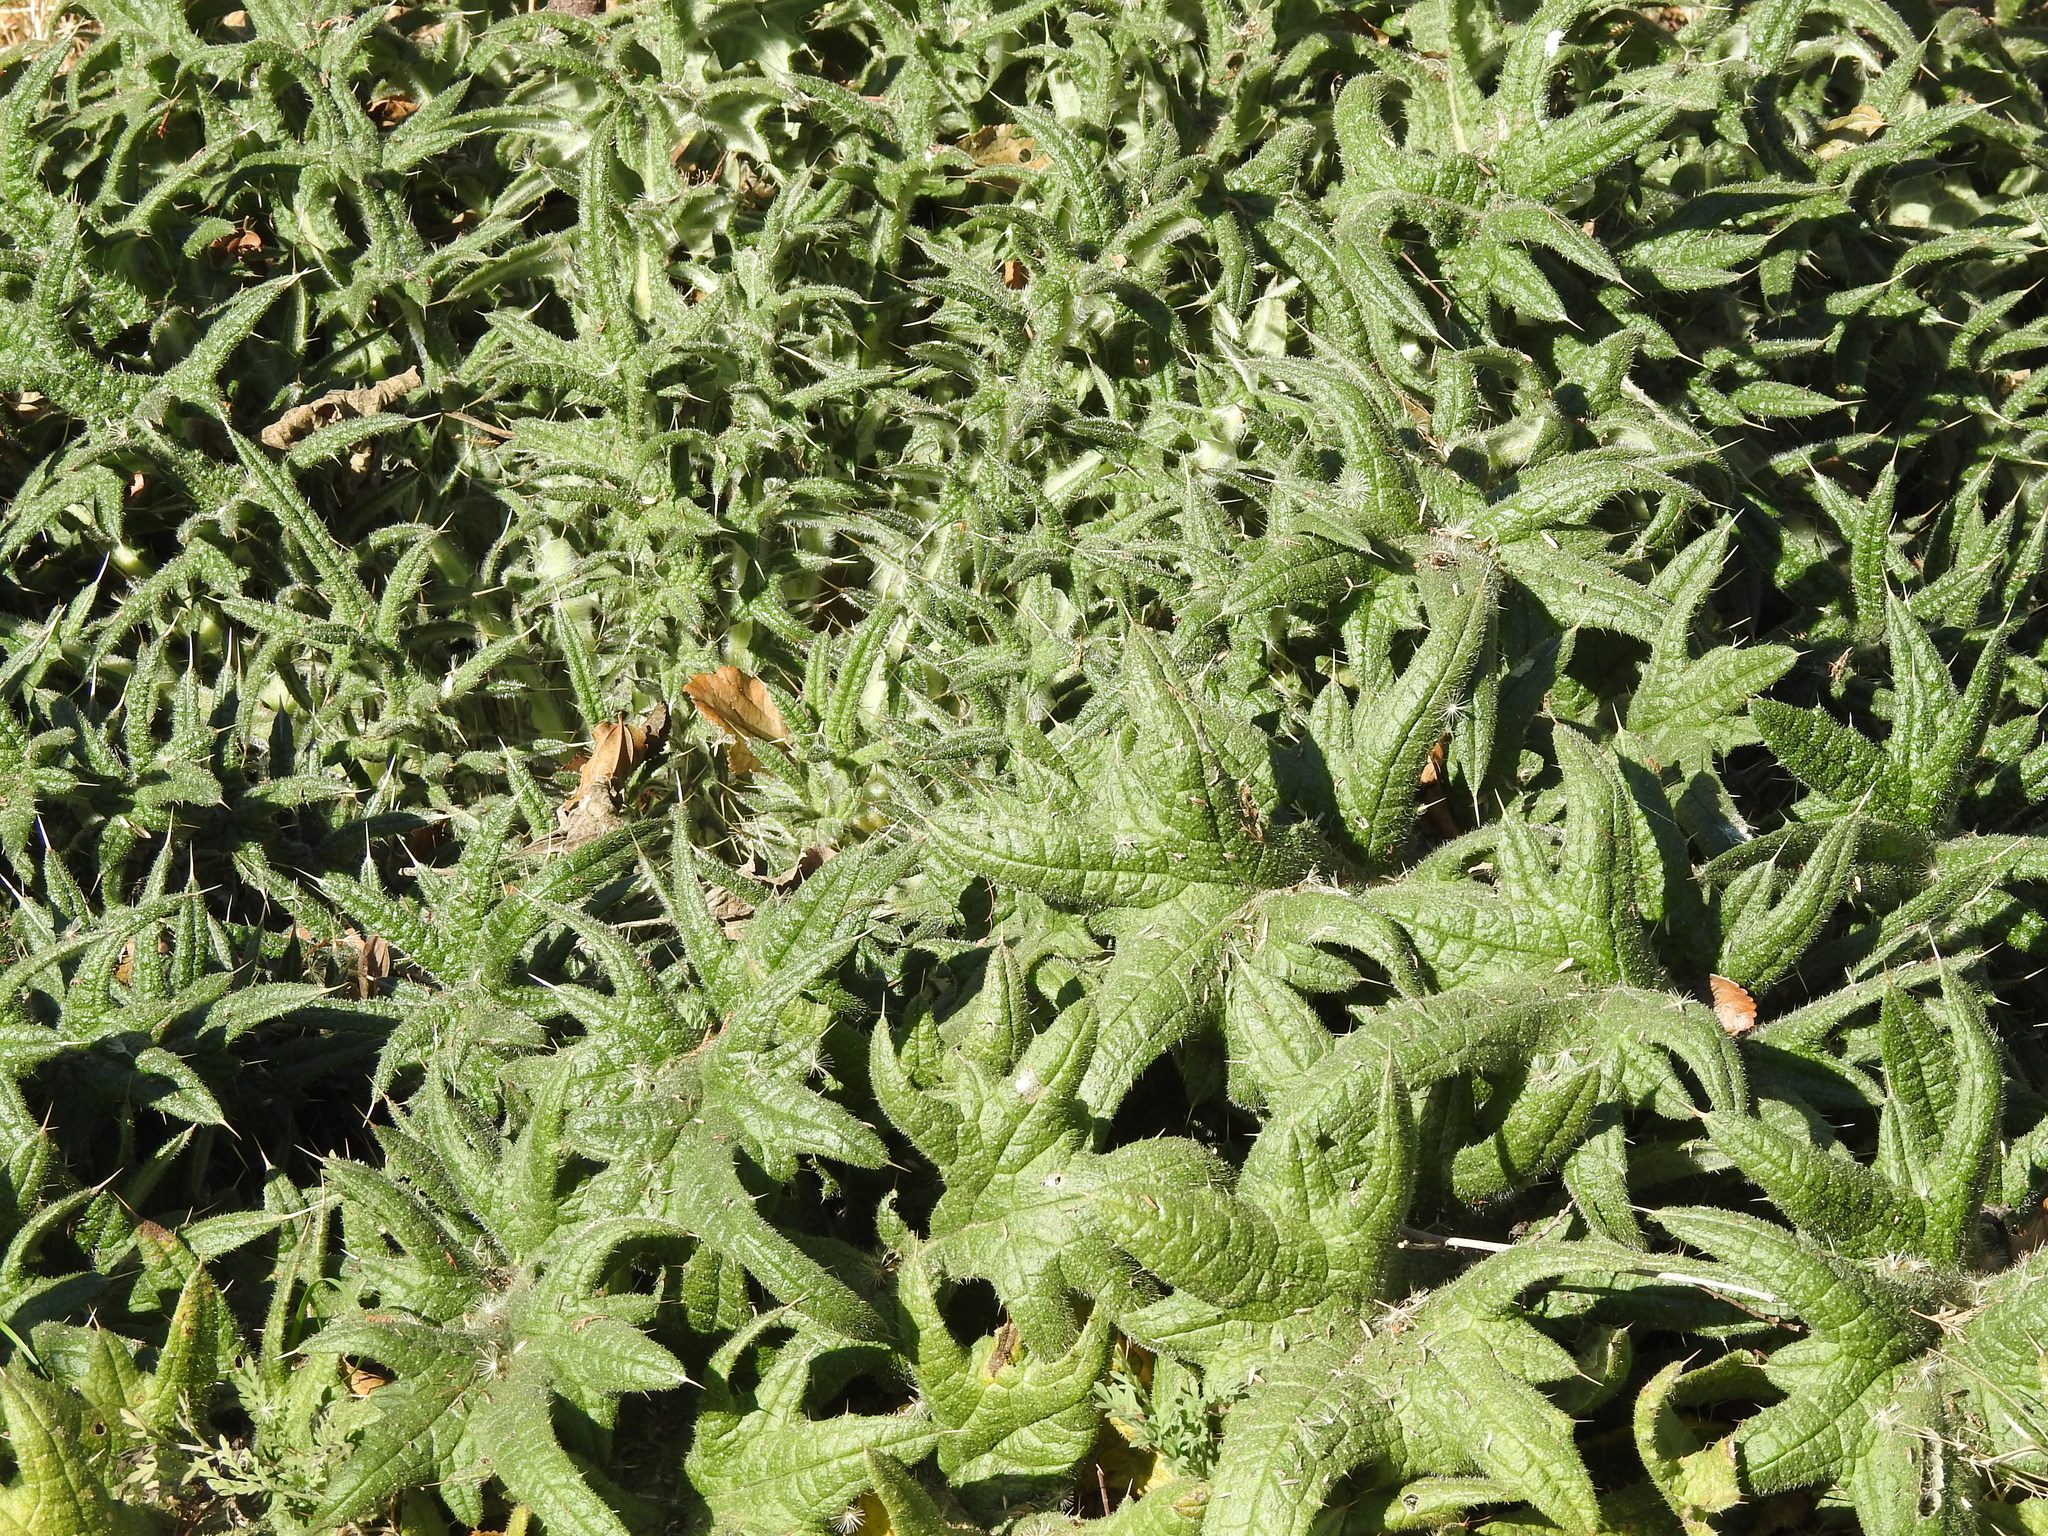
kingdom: Plantae
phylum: Tracheophyta
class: Magnoliopsida
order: Asterales
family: Asteraceae
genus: Cirsium
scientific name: Cirsium vulgare
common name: Bull thistle
